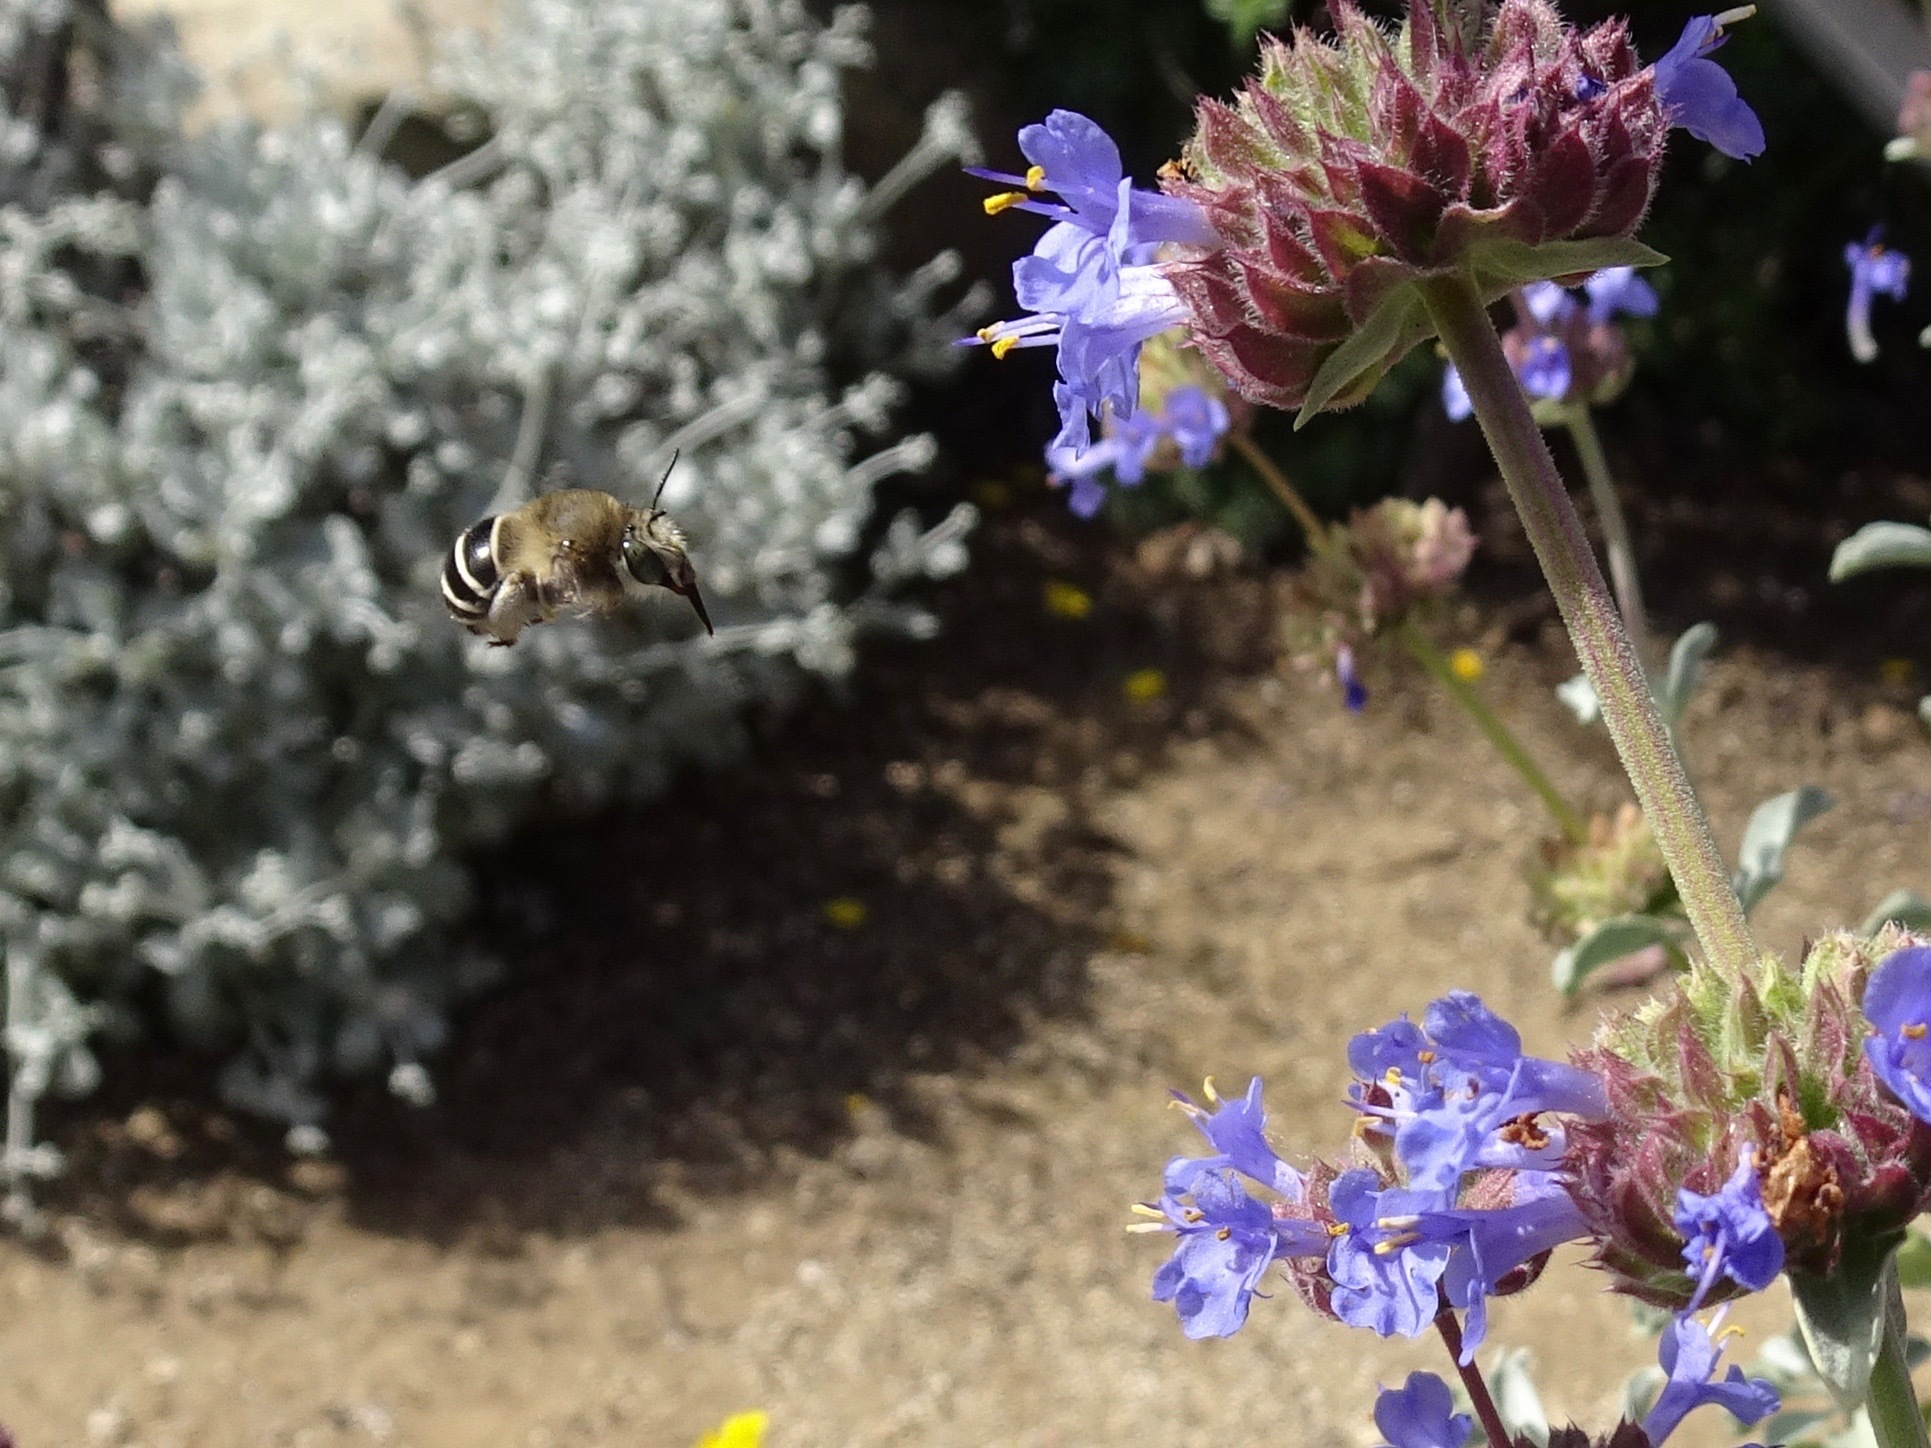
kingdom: Animalia
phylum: Arthropoda
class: Insecta
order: Hymenoptera
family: Apidae
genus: Anthophora
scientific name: Anthophora californica
